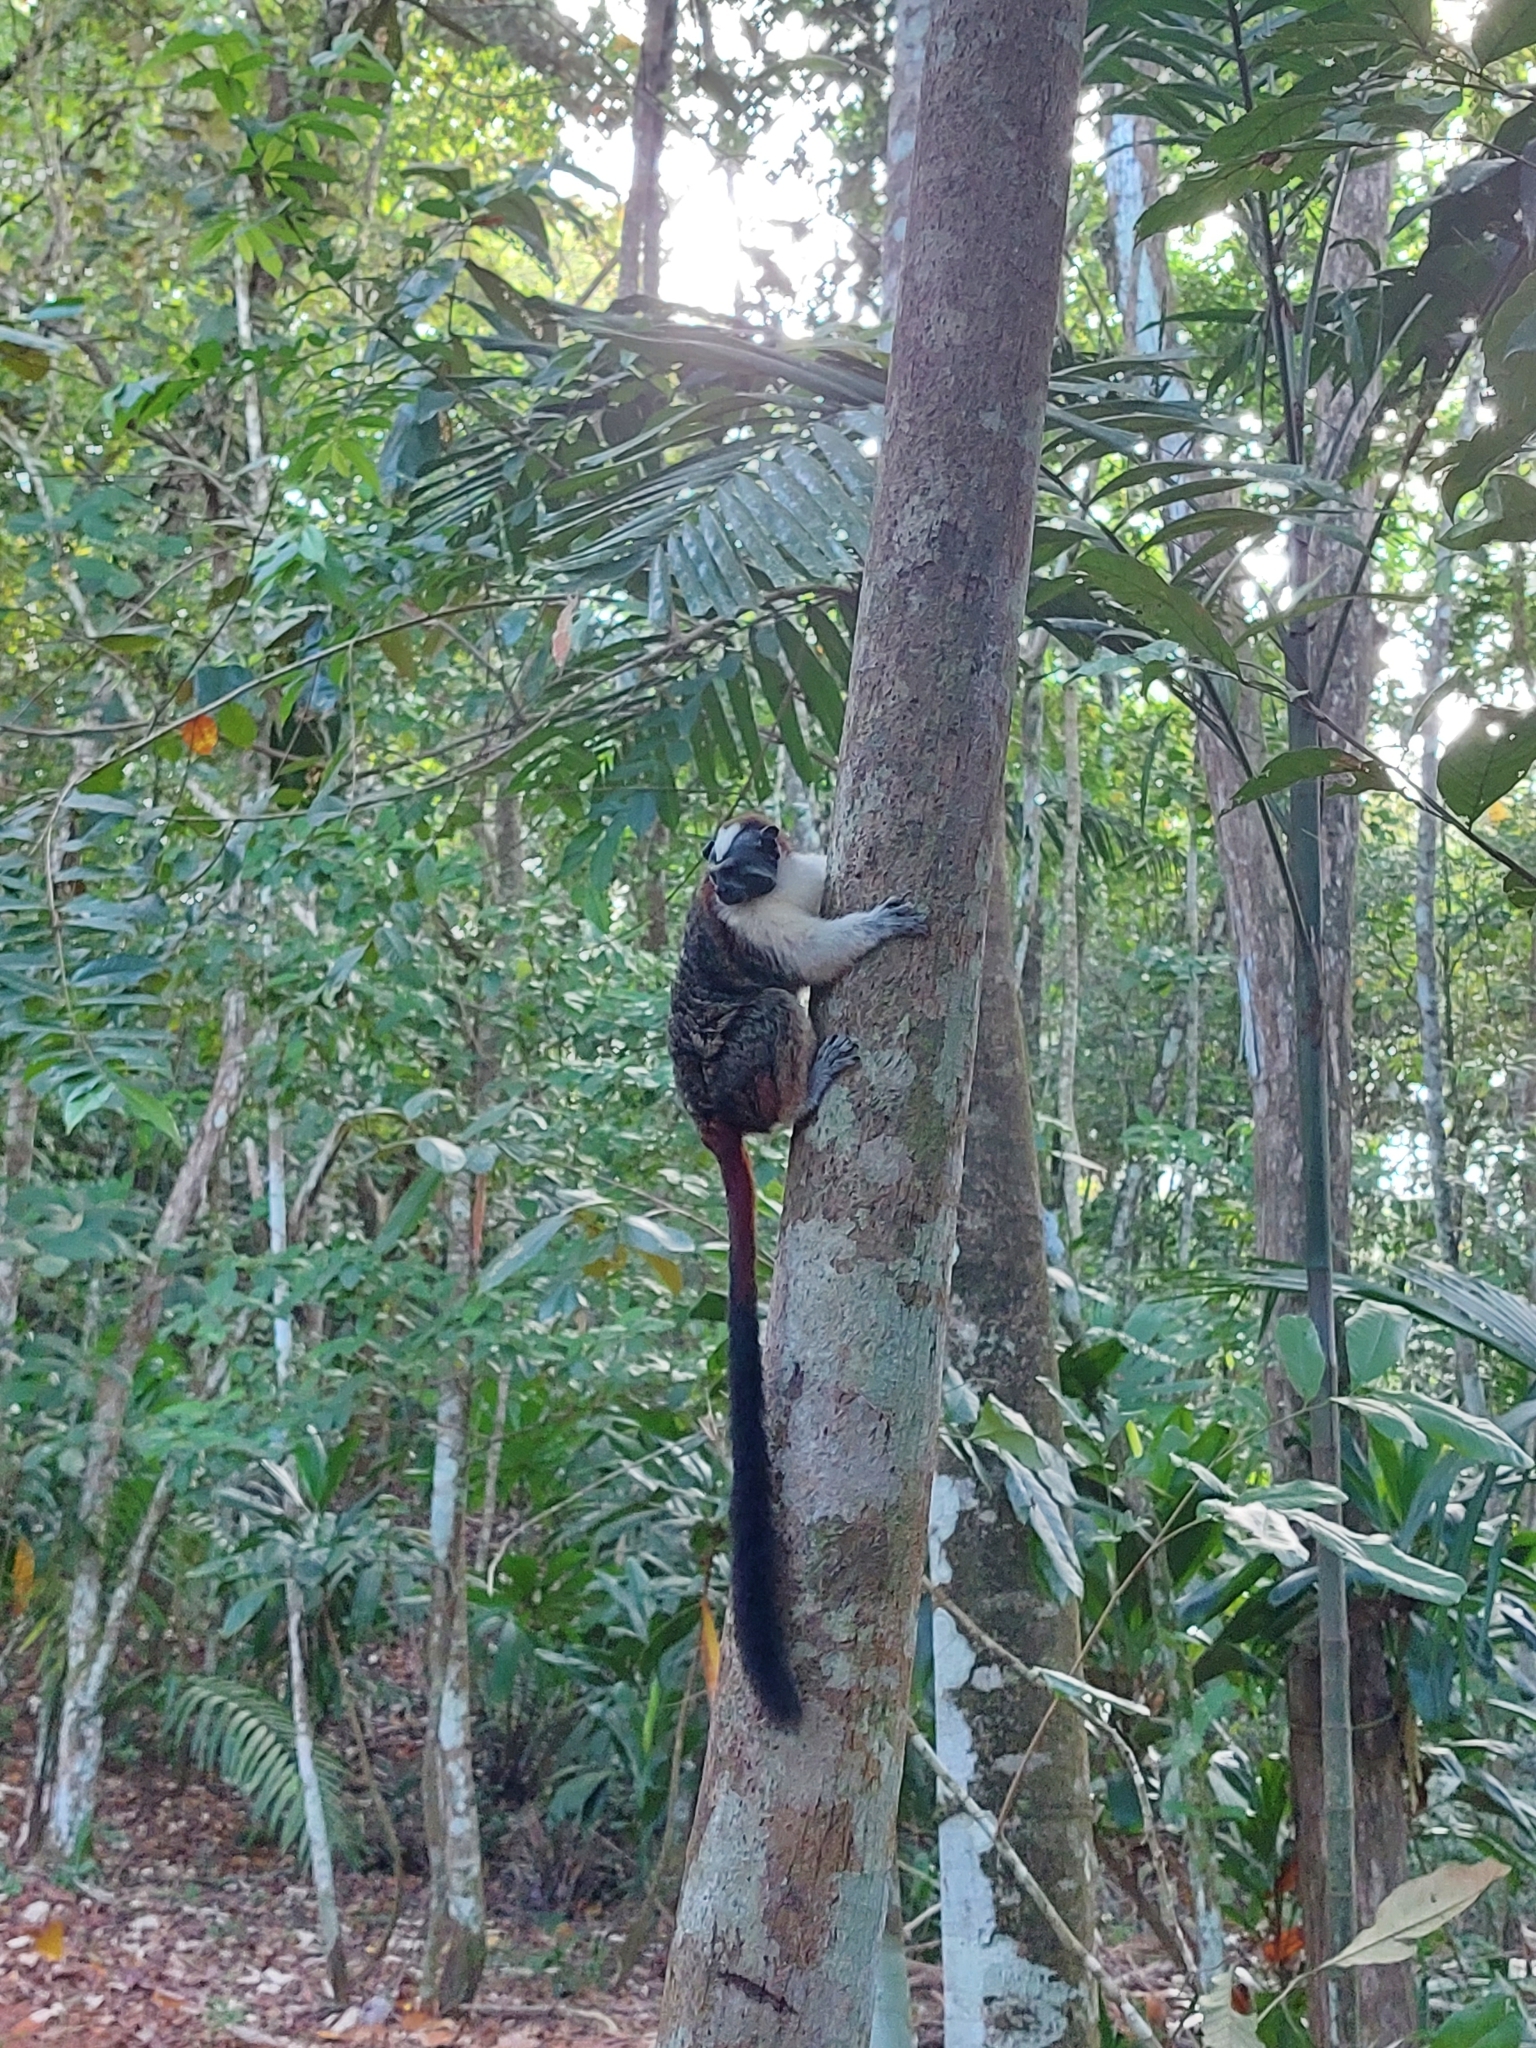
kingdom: Animalia
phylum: Chordata
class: Mammalia
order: Primates
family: Callitrichidae
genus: Saguinus
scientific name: Saguinus geoffroyi
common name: Geoffroy s tamarin
